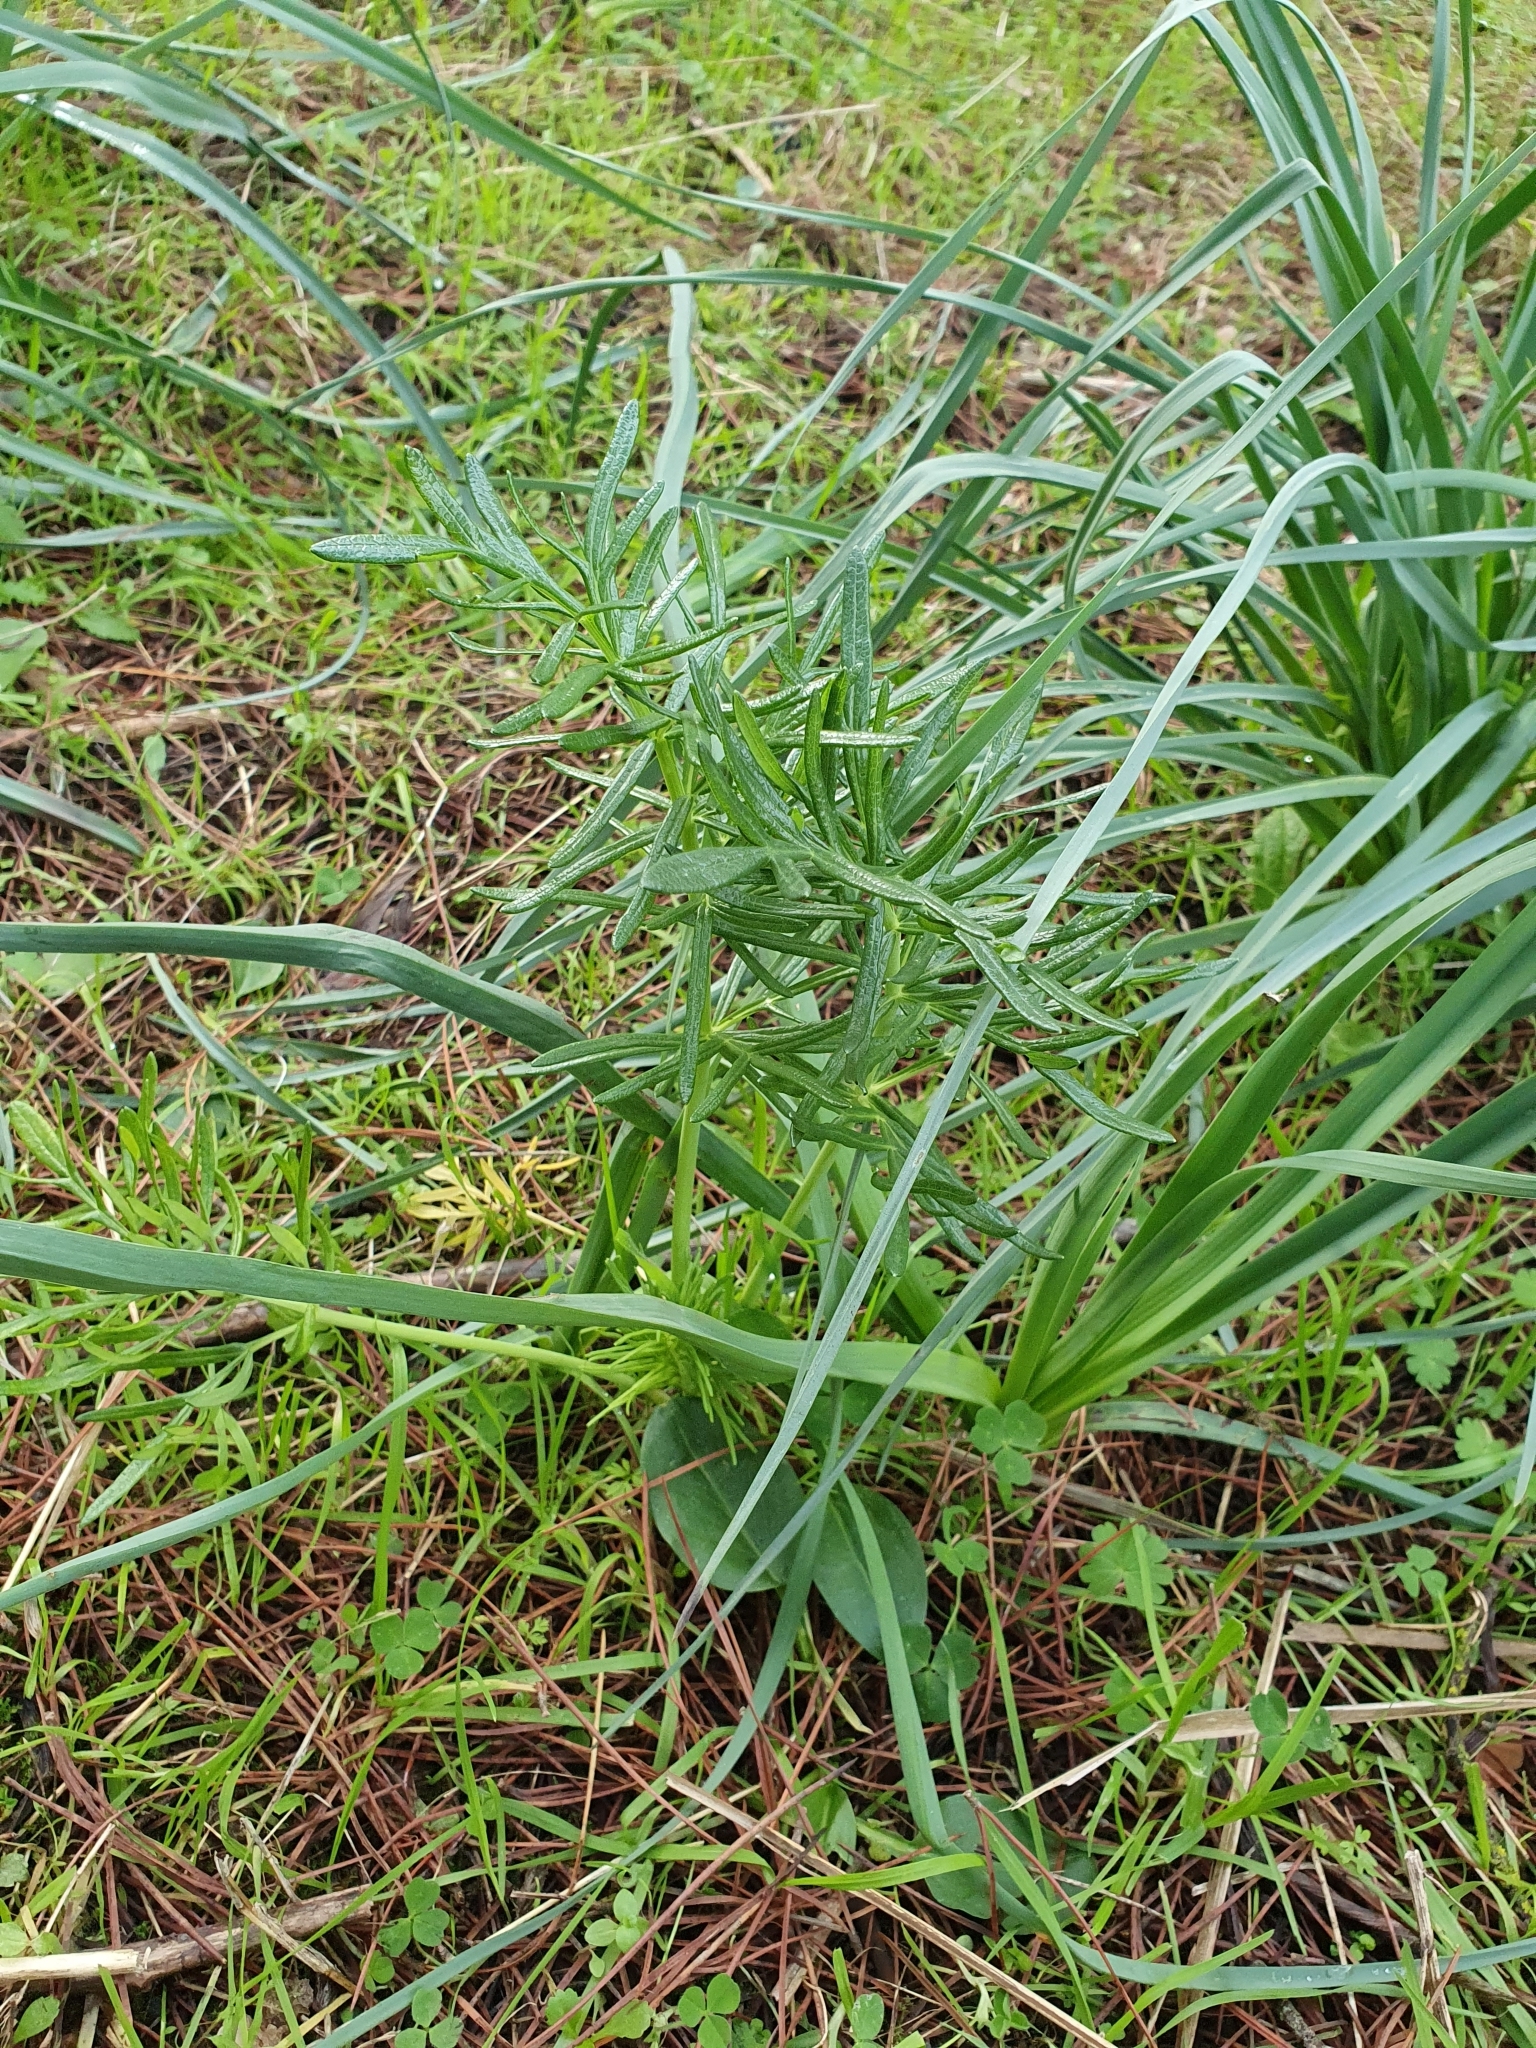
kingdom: Plantae
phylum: Tracheophyta
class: Magnoliopsida
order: Apiales
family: Apiaceae
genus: Thapsia
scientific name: Thapsia garganica
